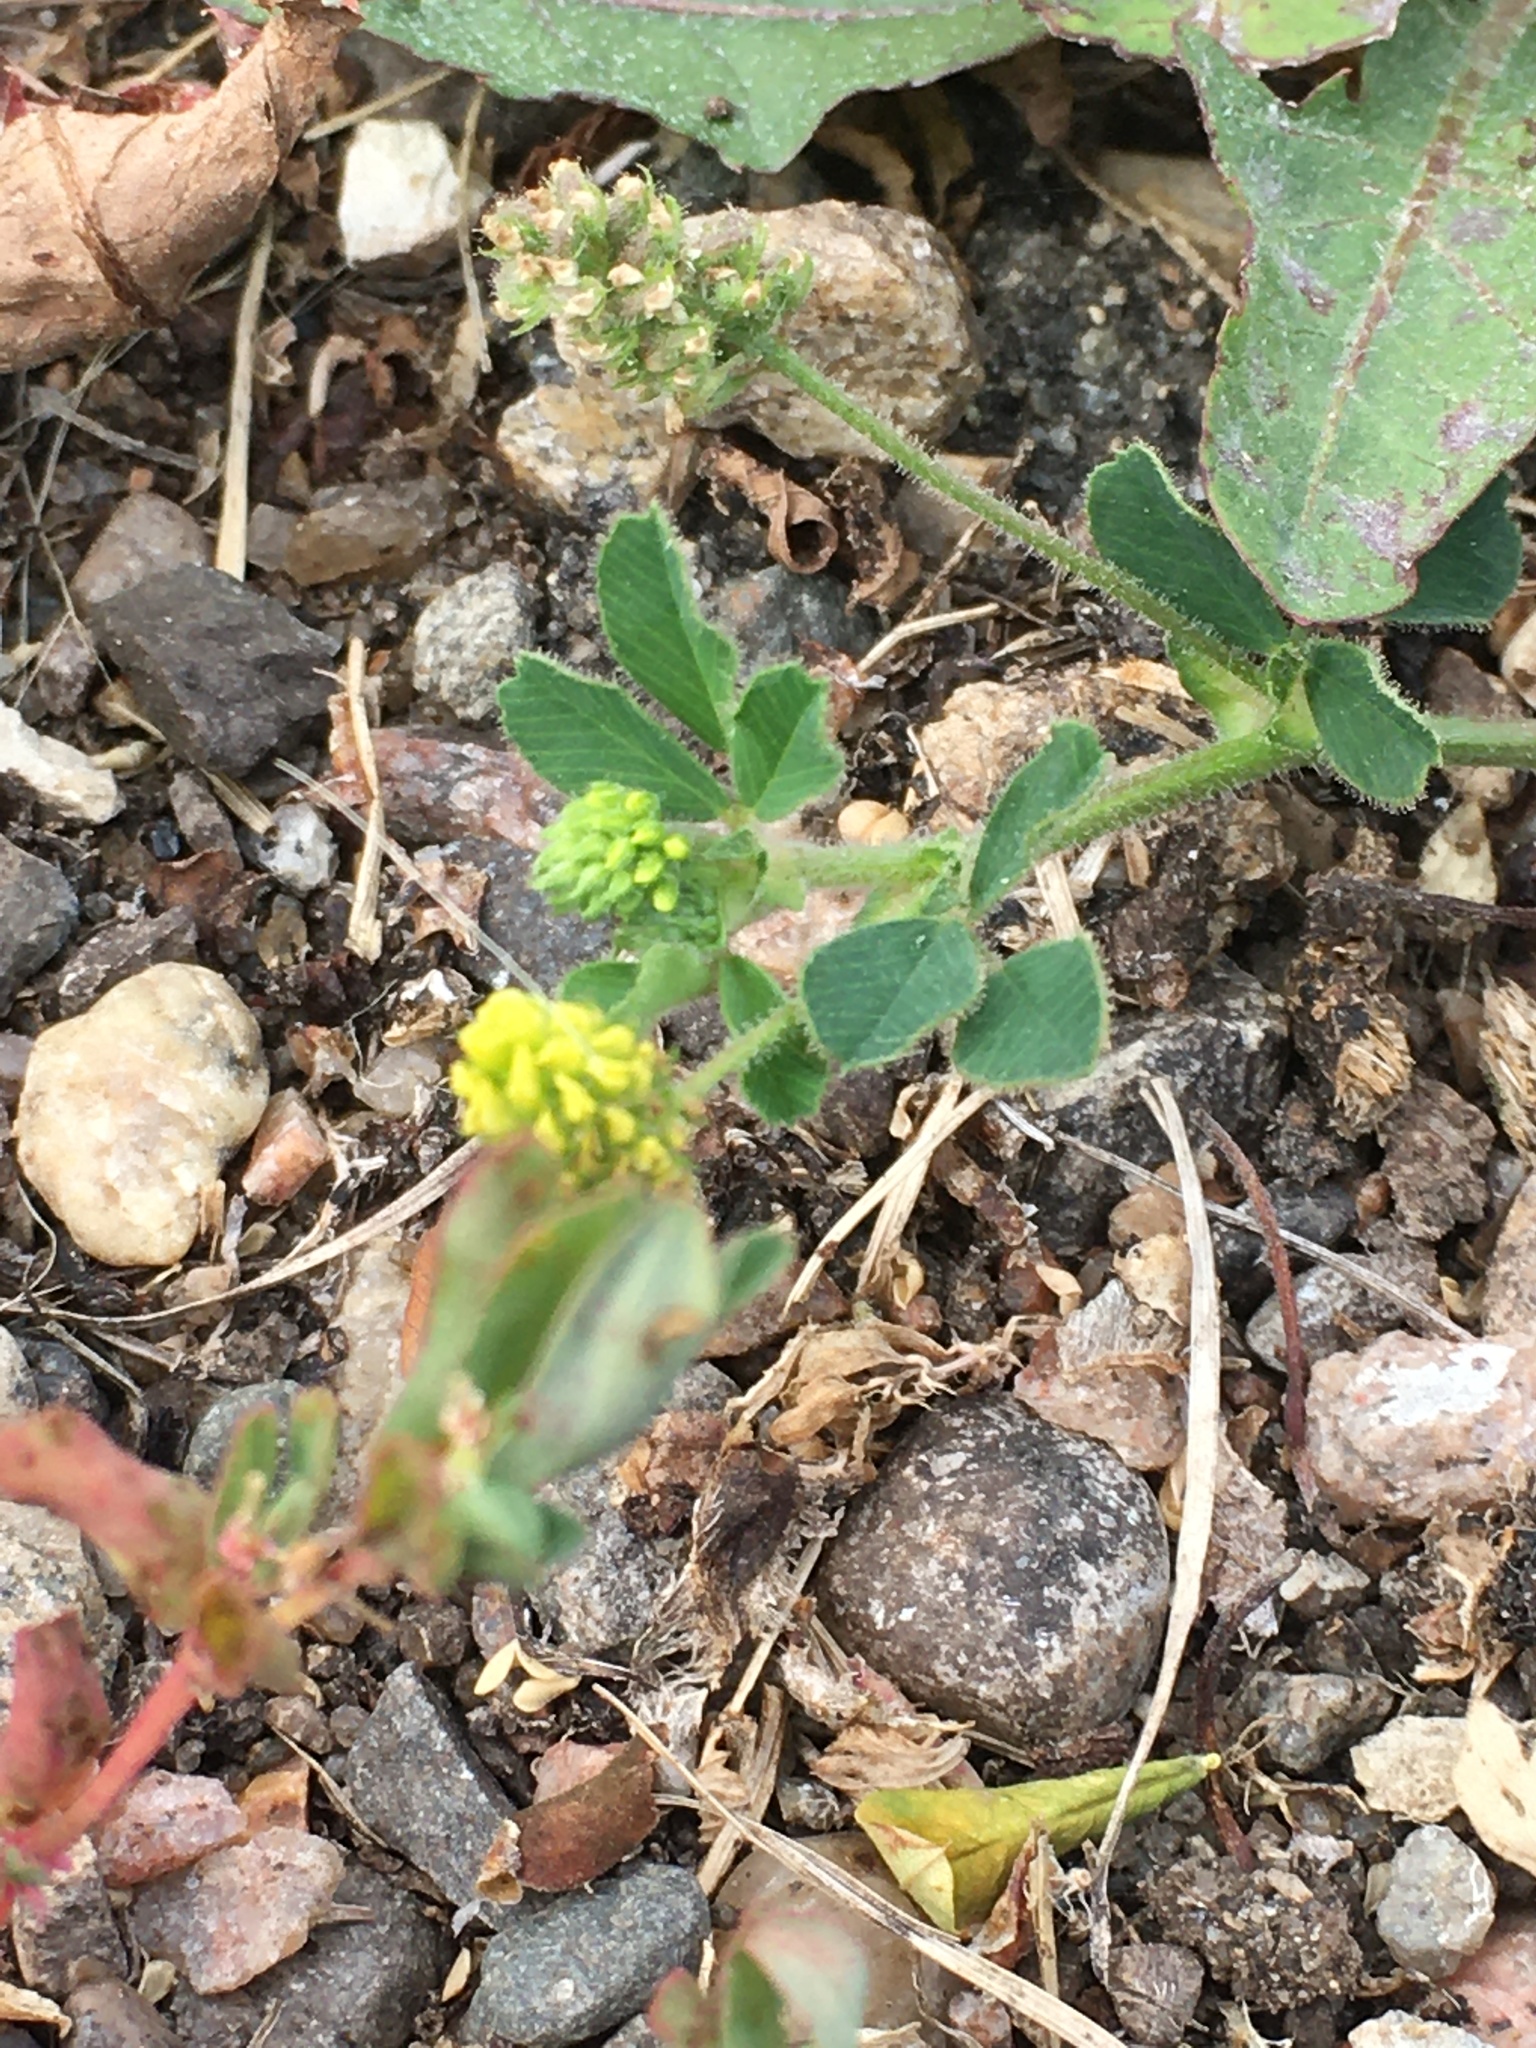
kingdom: Plantae
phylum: Tracheophyta
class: Magnoliopsida
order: Fabales
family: Fabaceae
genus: Medicago
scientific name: Medicago lupulina
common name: Black medick
